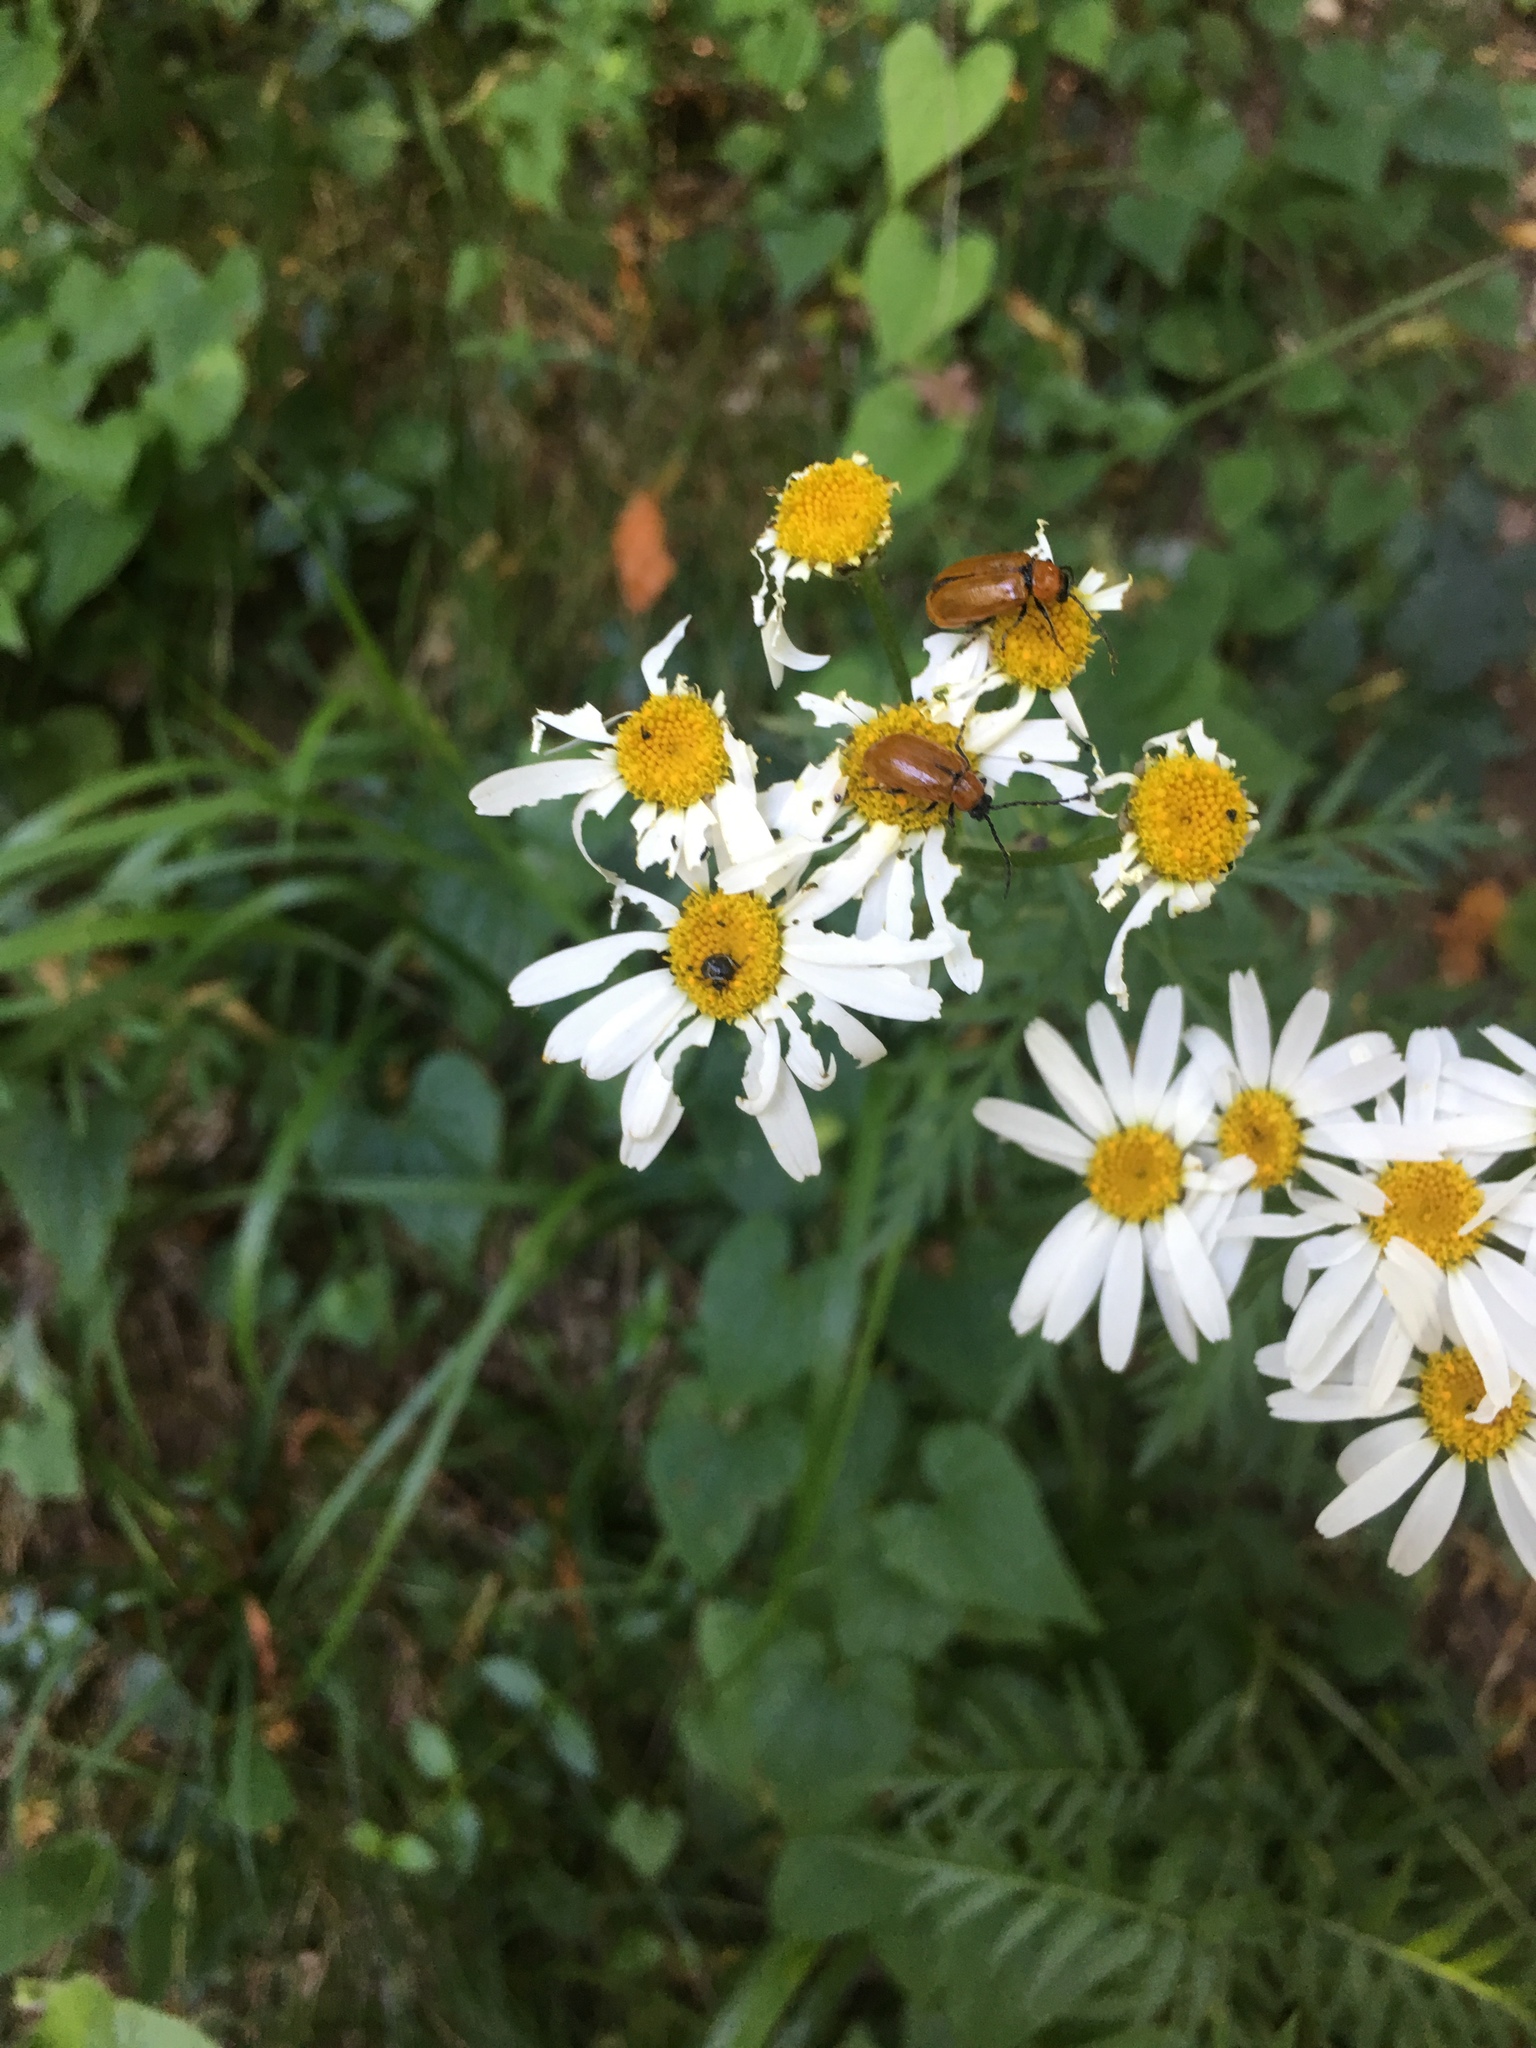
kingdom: Animalia
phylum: Arthropoda
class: Insecta
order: Coleoptera
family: Chrysomelidae
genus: Exosoma
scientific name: Exosoma lusitanicum
